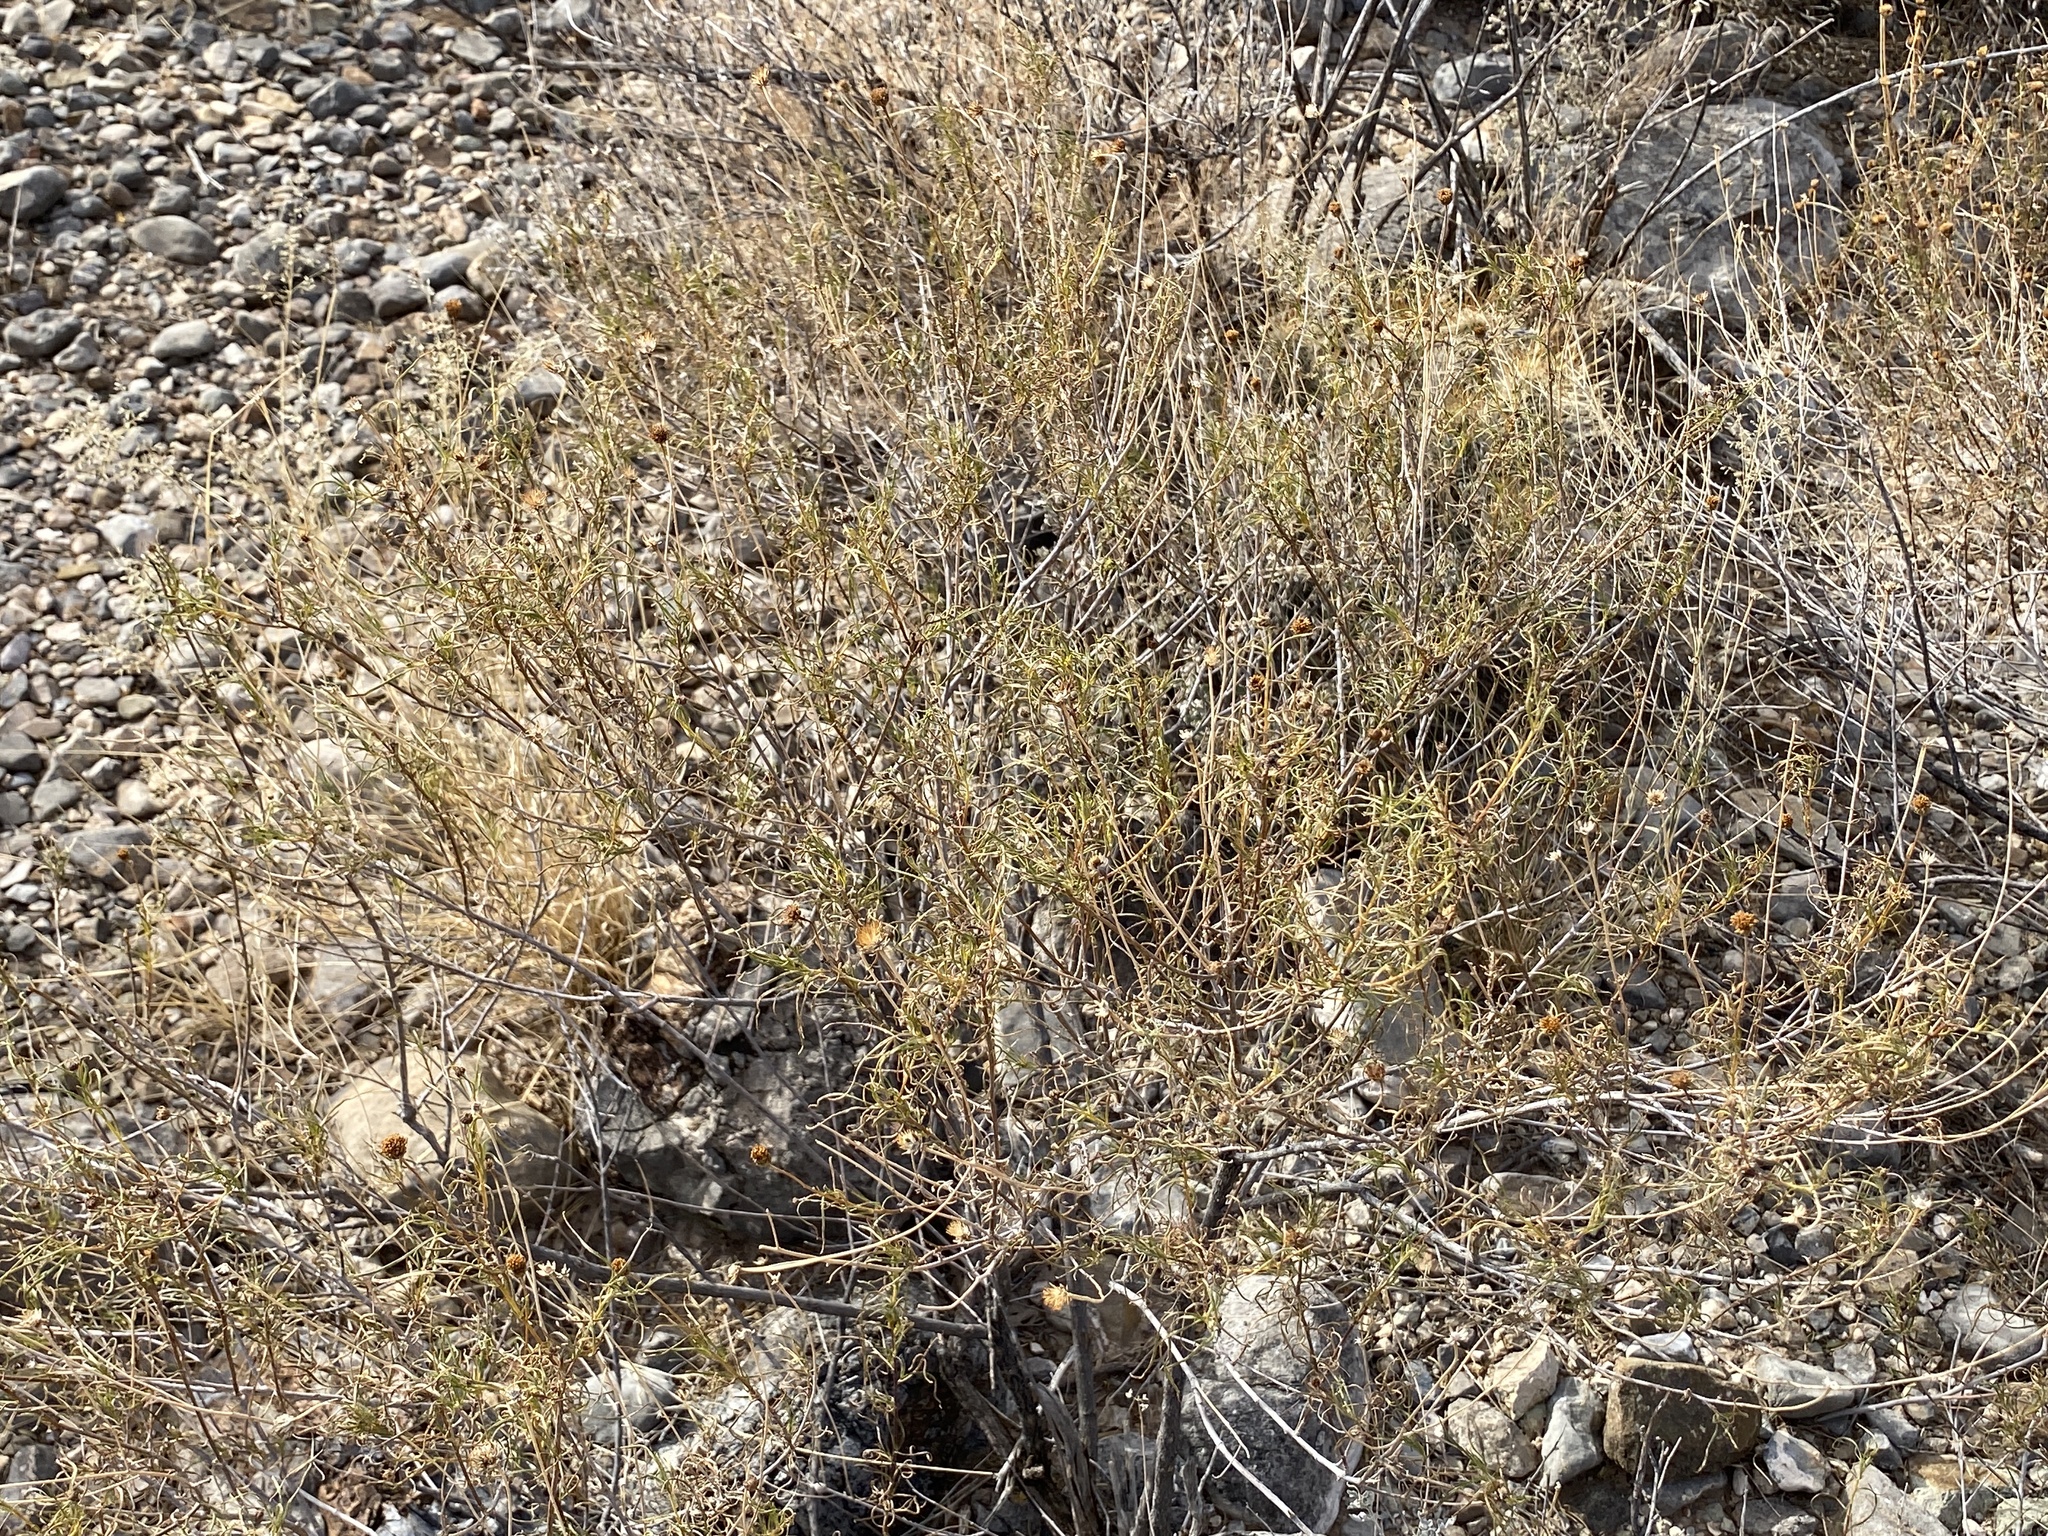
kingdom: Plantae
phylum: Tracheophyta
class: Magnoliopsida
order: Asterales
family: Asteraceae
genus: Sidneya
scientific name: Sidneya tenuifolia
